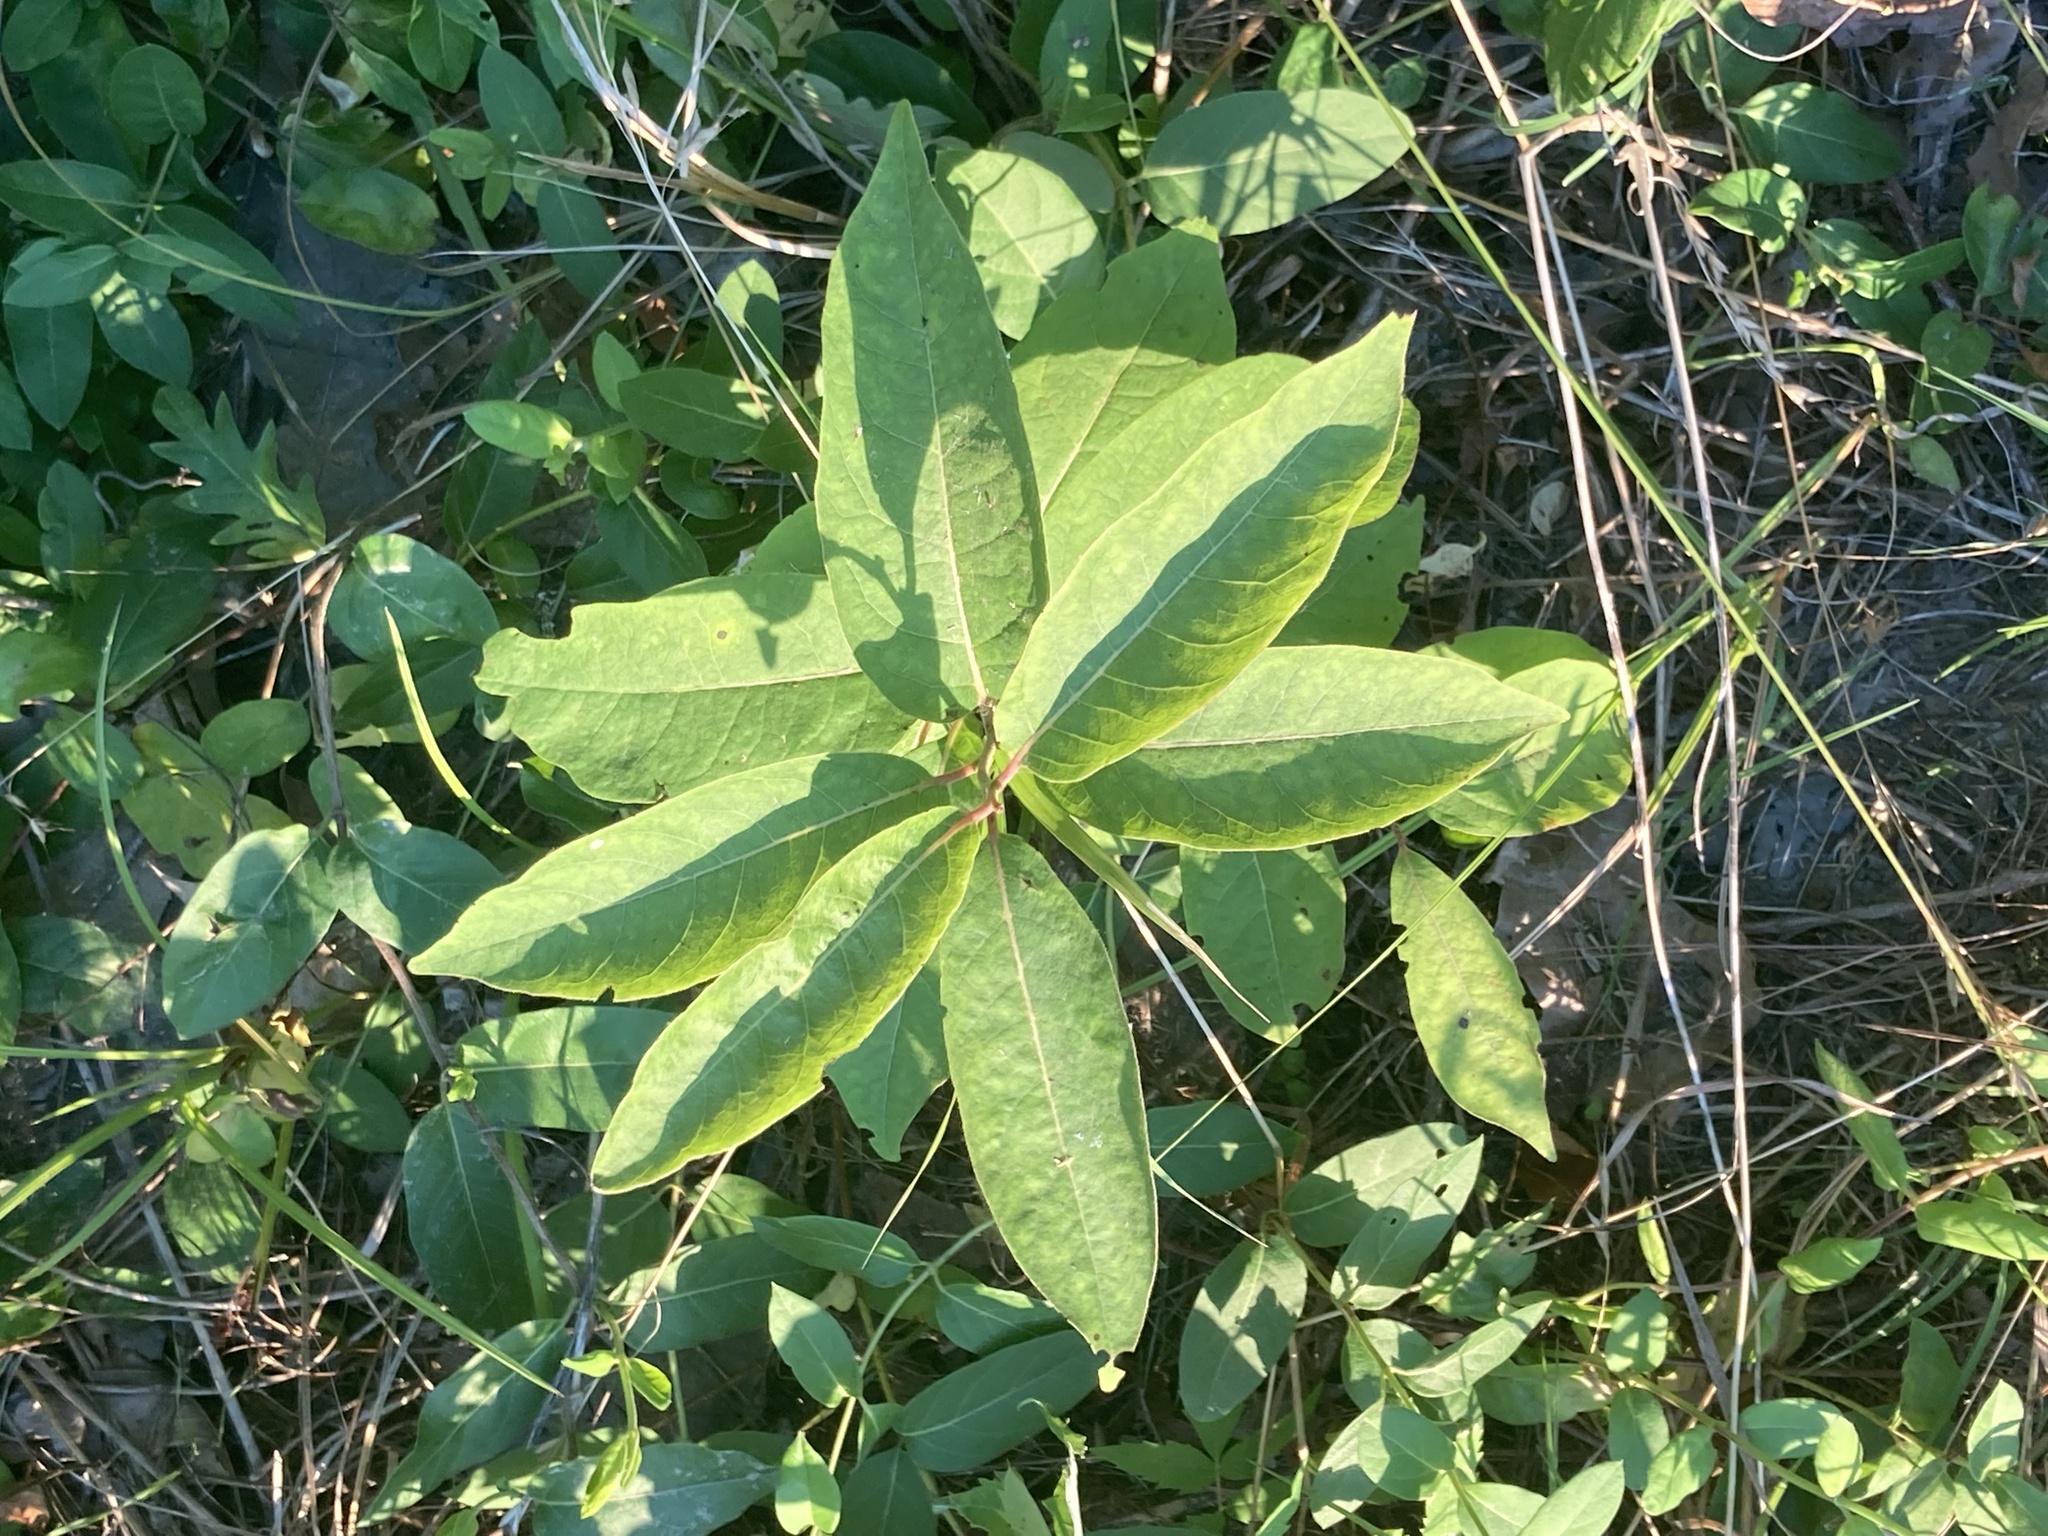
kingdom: Plantae
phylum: Tracheophyta
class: Magnoliopsida
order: Ericales
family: Ebenaceae
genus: Diospyros
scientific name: Diospyros virginiana
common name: Persimmon
